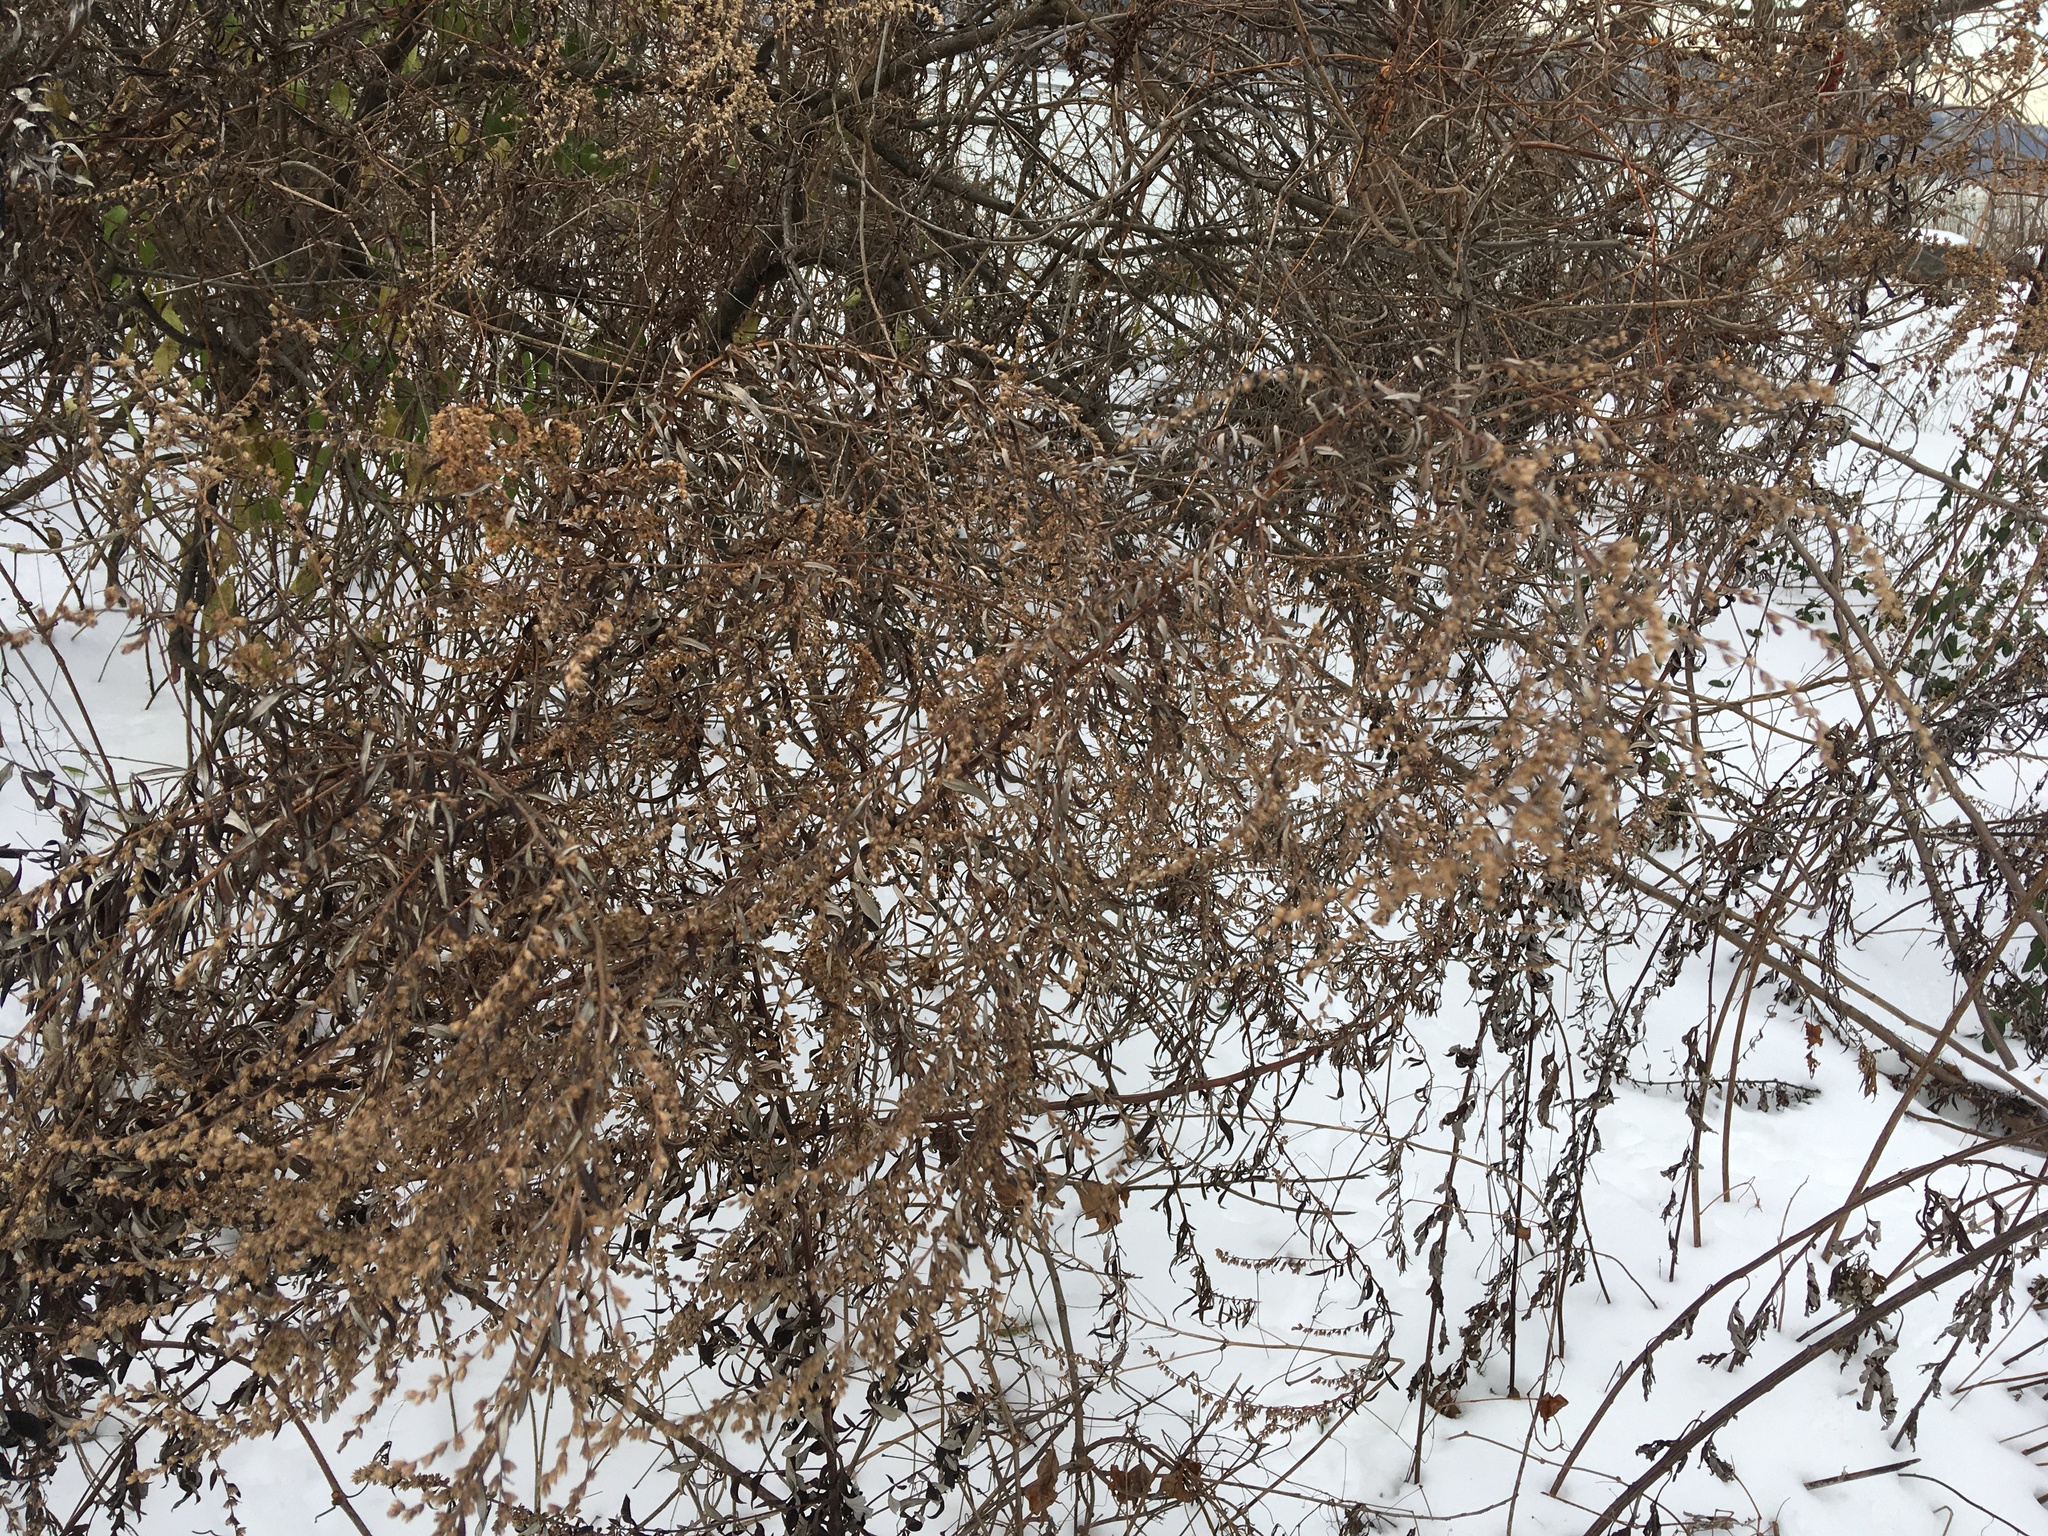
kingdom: Plantae
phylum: Tracheophyta
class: Magnoliopsida
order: Asterales
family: Asteraceae
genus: Artemisia
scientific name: Artemisia vulgaris
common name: Mugwort
